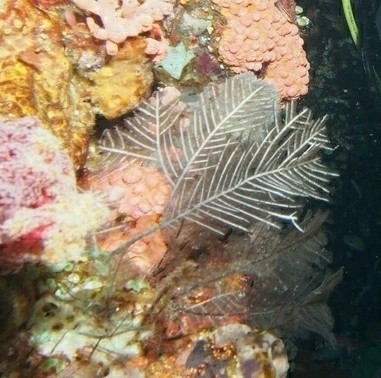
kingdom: Animalia
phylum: Cnidaria
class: Hydrozoa
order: Leptothecata
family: Aglaopheniidae
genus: Macrorhynchia
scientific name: Macrorhynchia phoenicea
